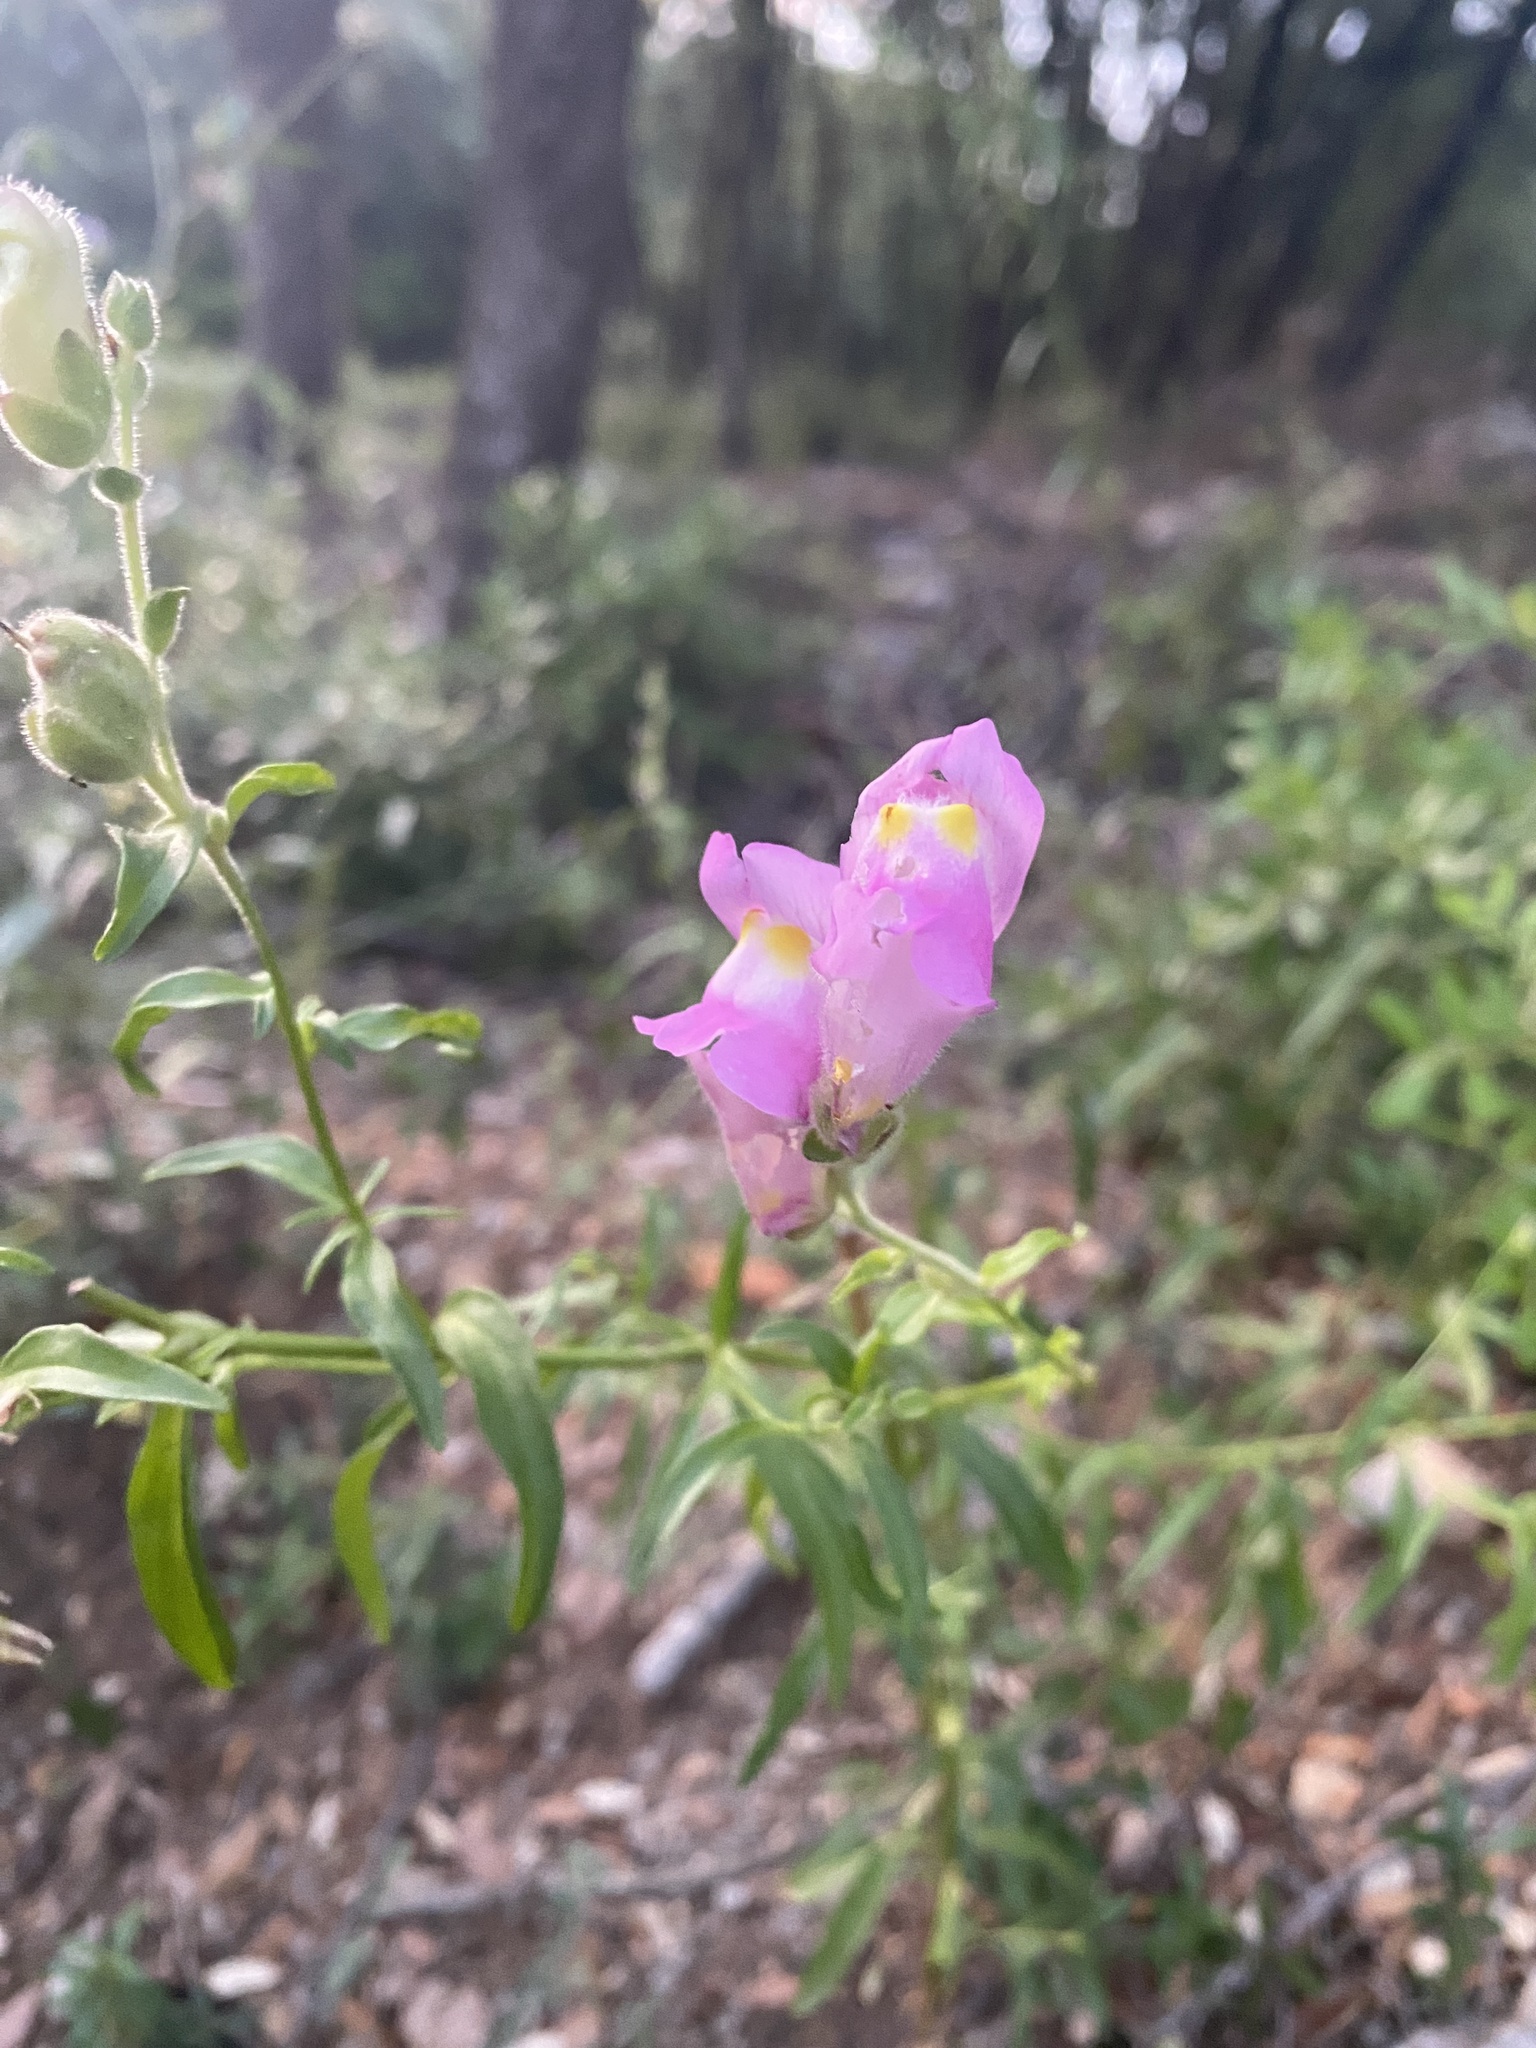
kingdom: Plantae
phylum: Tracheophyta
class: Magnoliopsida
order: Lamiales
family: Plantaginaceae
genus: Antirrhinum
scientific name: Antirrhinum majus
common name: Snapdragon
